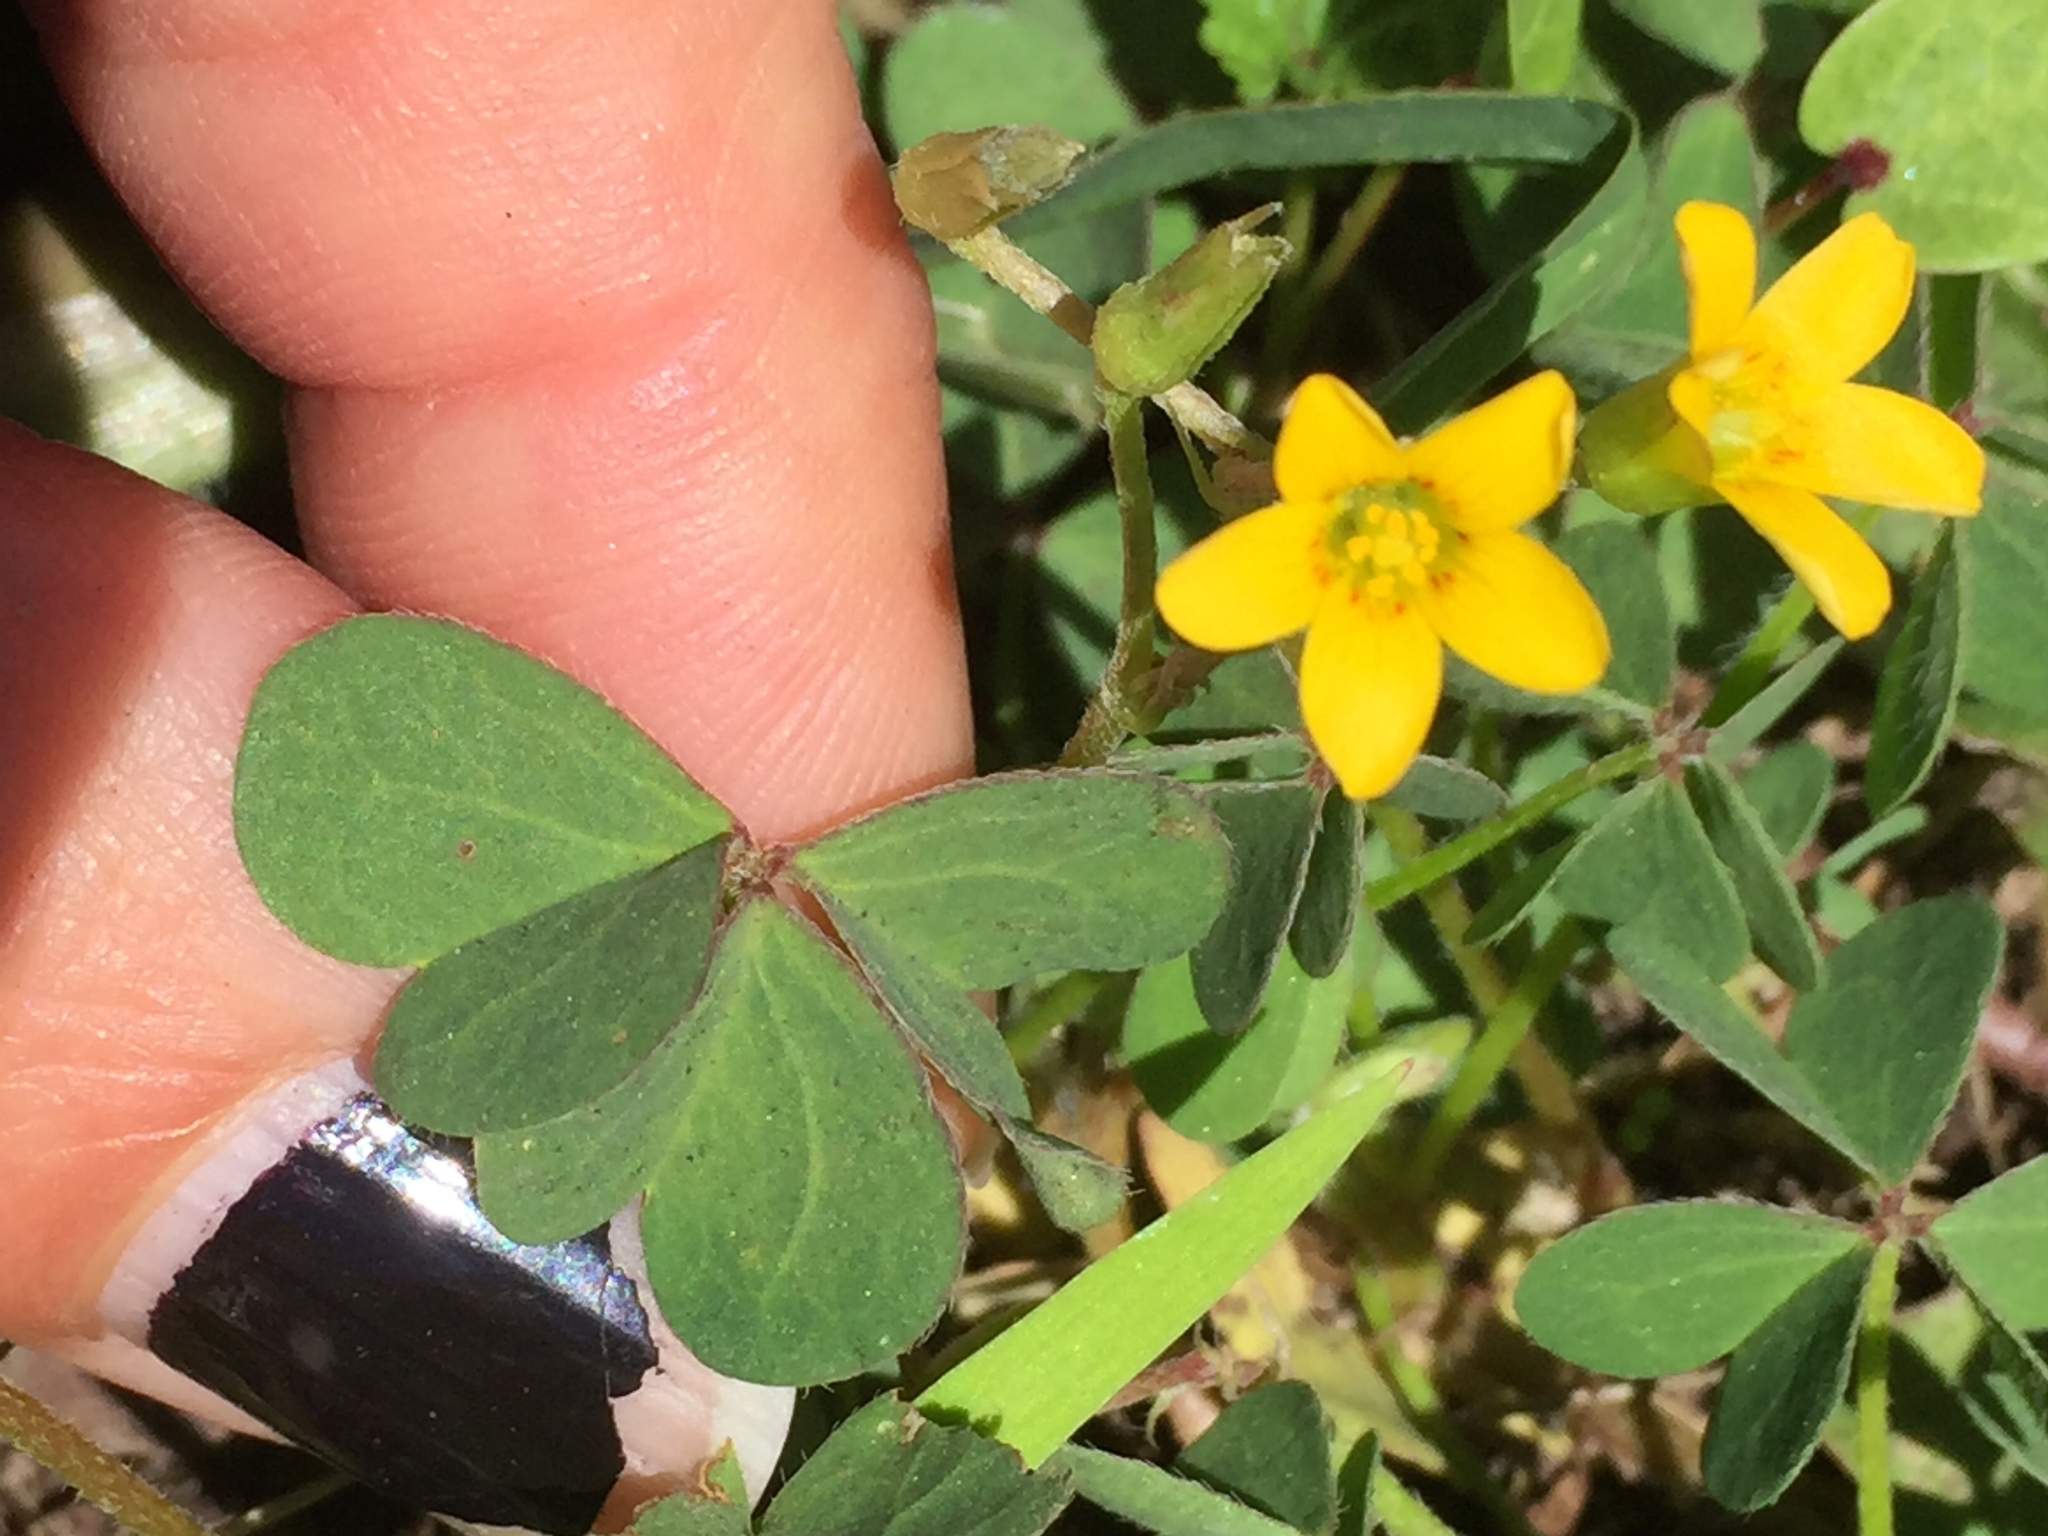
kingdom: Plantae
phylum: Tracheophyta
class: Magnoliopsida
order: Oxalidales
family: Oxalidaceae
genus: Oxalis
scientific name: Oxalis corniculata
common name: Procumbent yellow-sorrel
